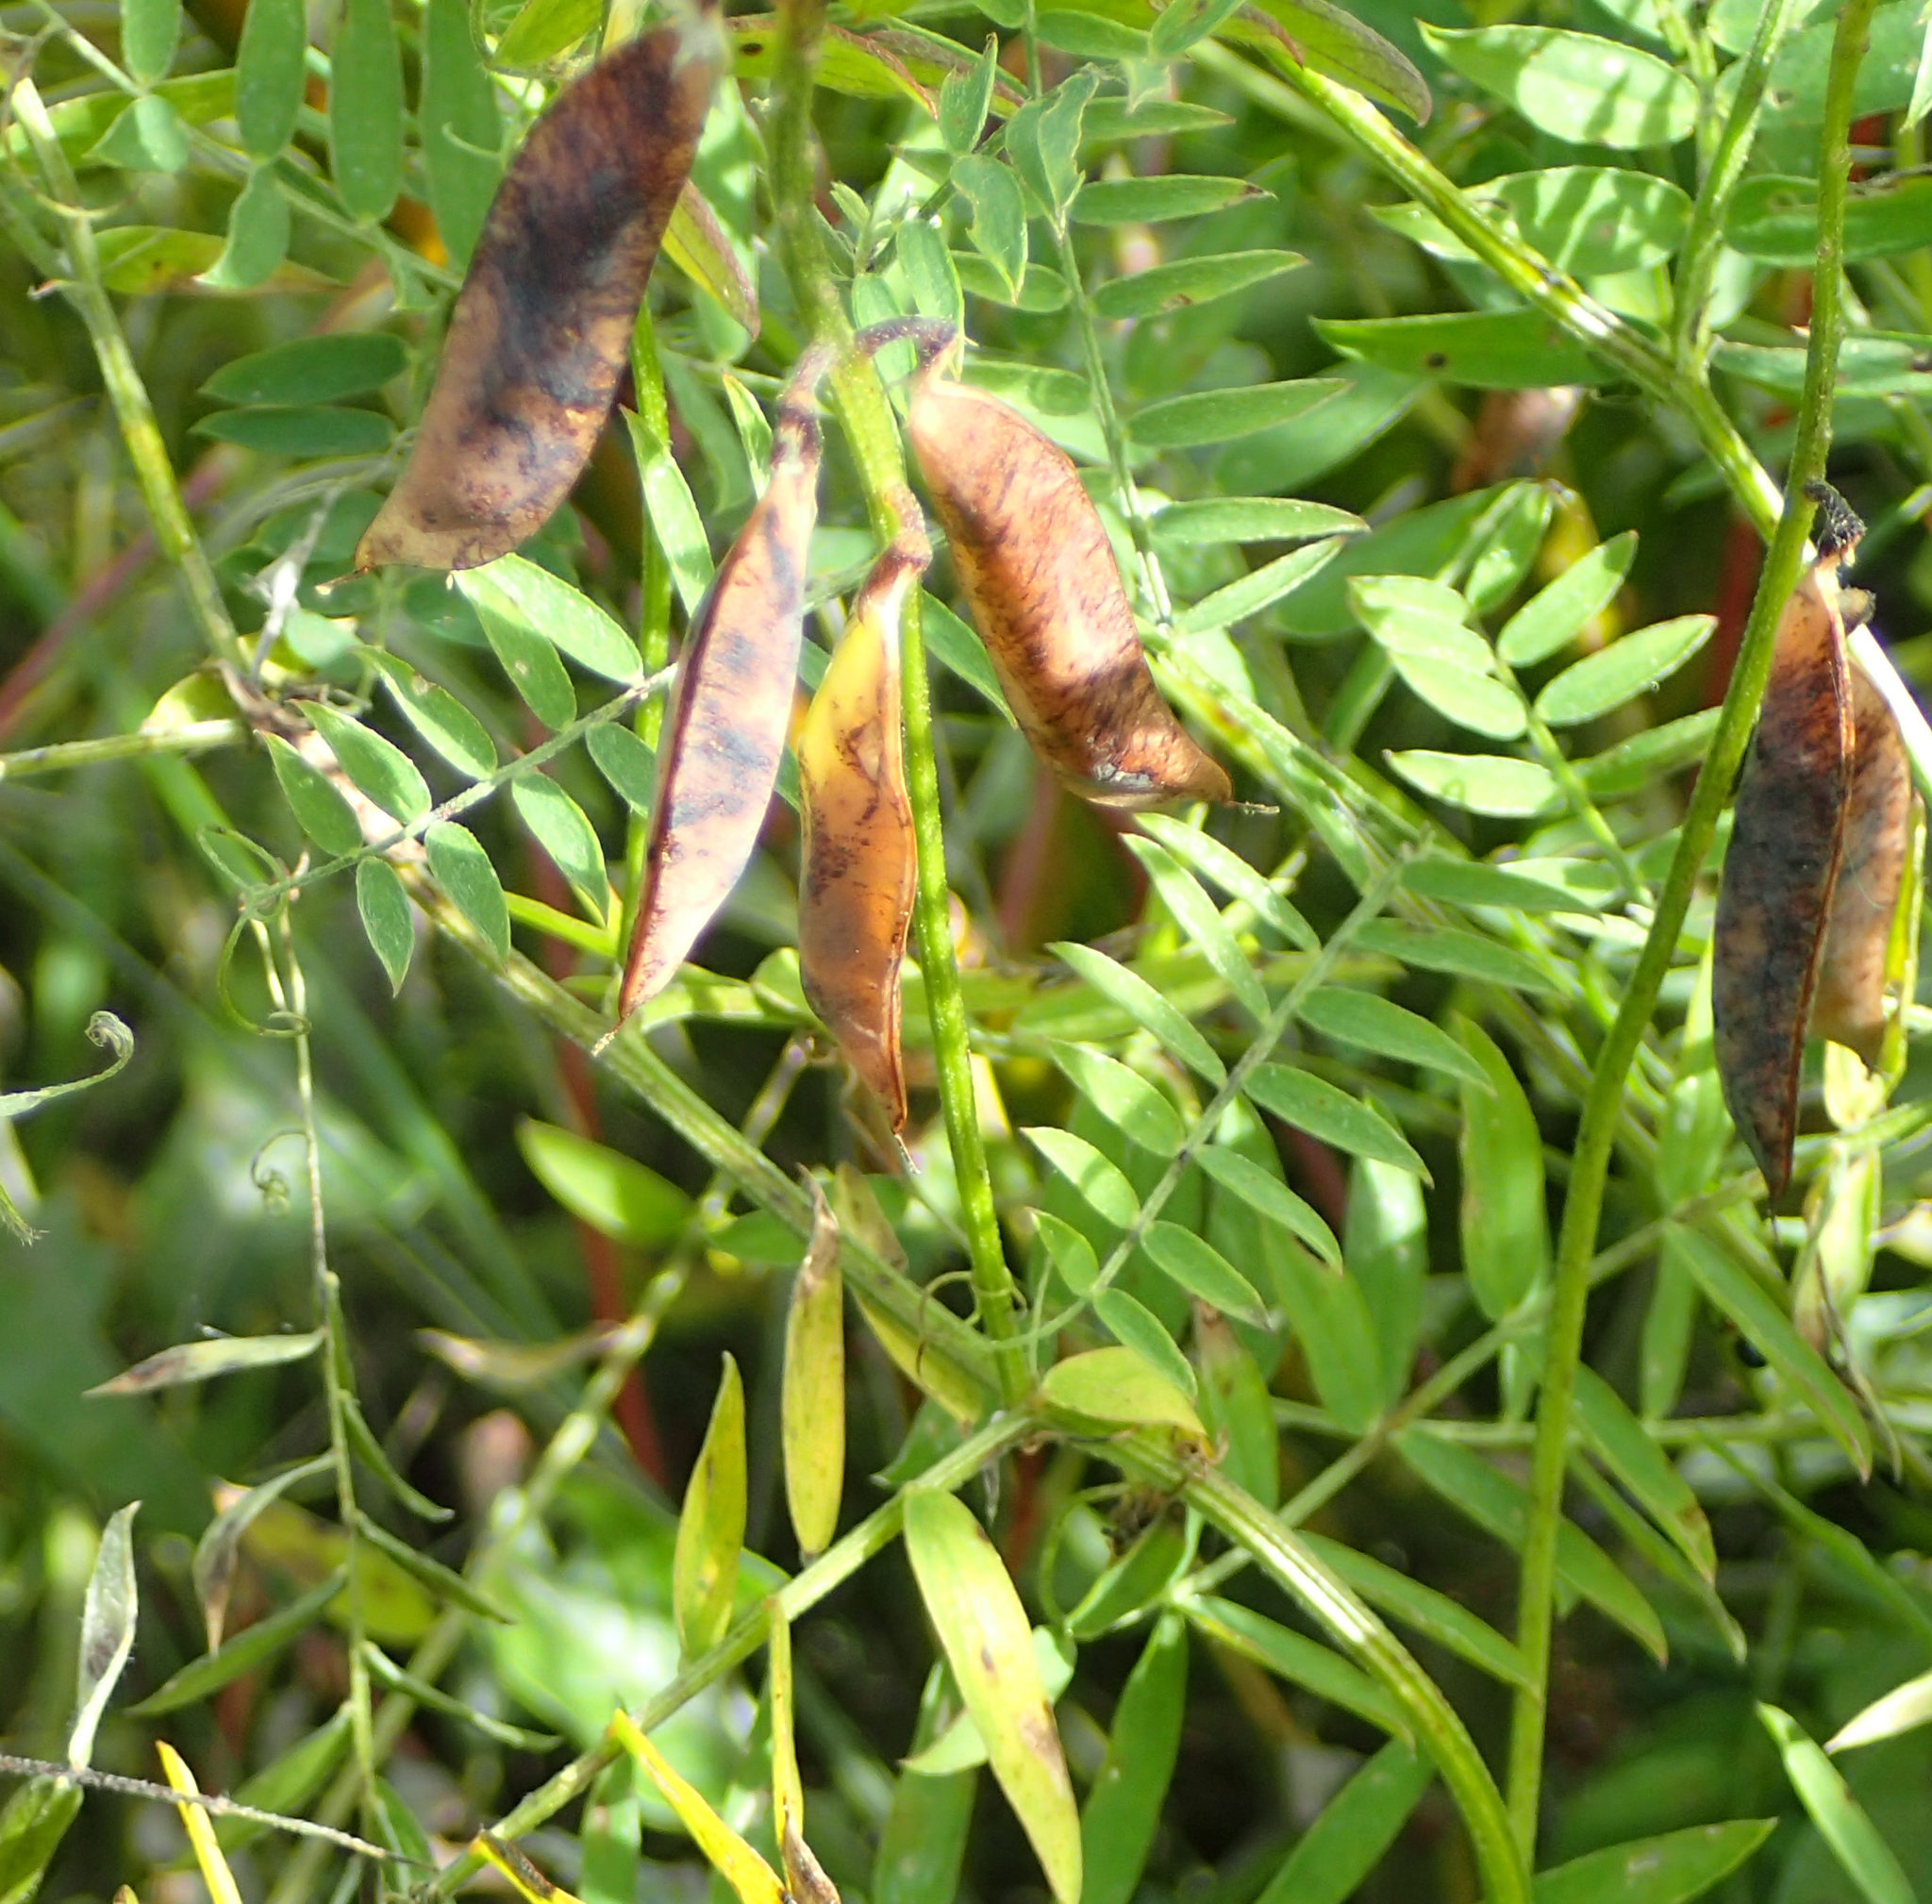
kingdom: Plantae
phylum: Tracheophyta
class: Magnoliopsida
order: Fabales
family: Fabaceae
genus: Vicia
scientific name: Vicia cracca
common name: Bird vetch
